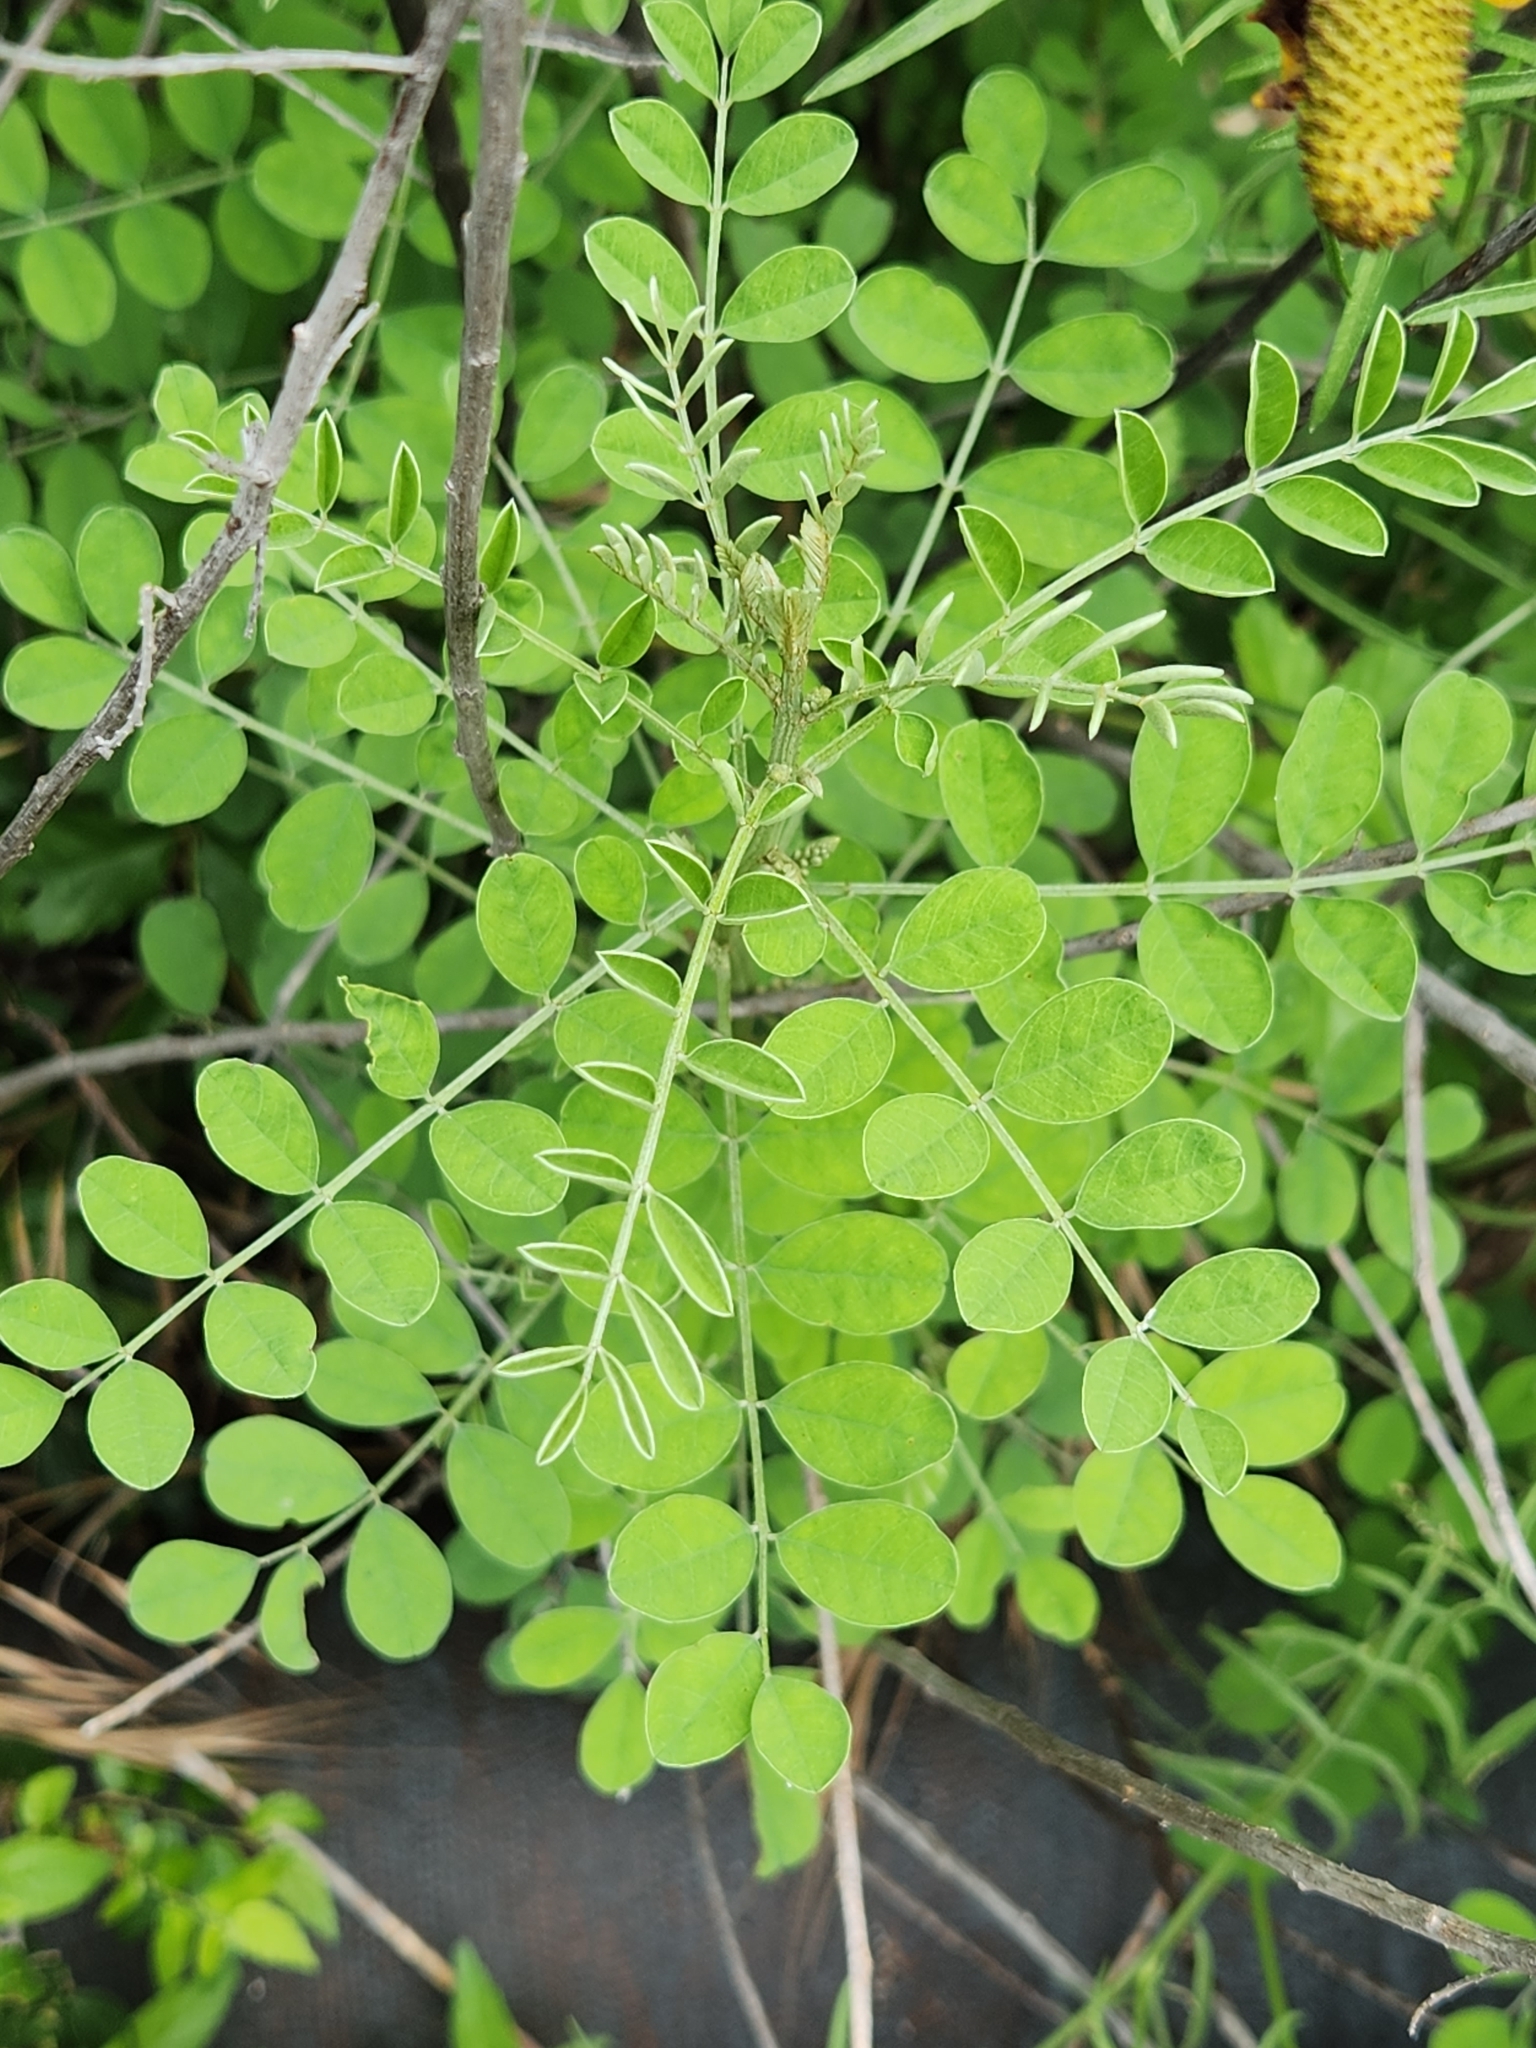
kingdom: Plantae
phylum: Tracheophyta
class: Magnoliopsida
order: Fabales
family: Fabaceae
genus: Indigofera
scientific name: Indigofera lindheimeriana
